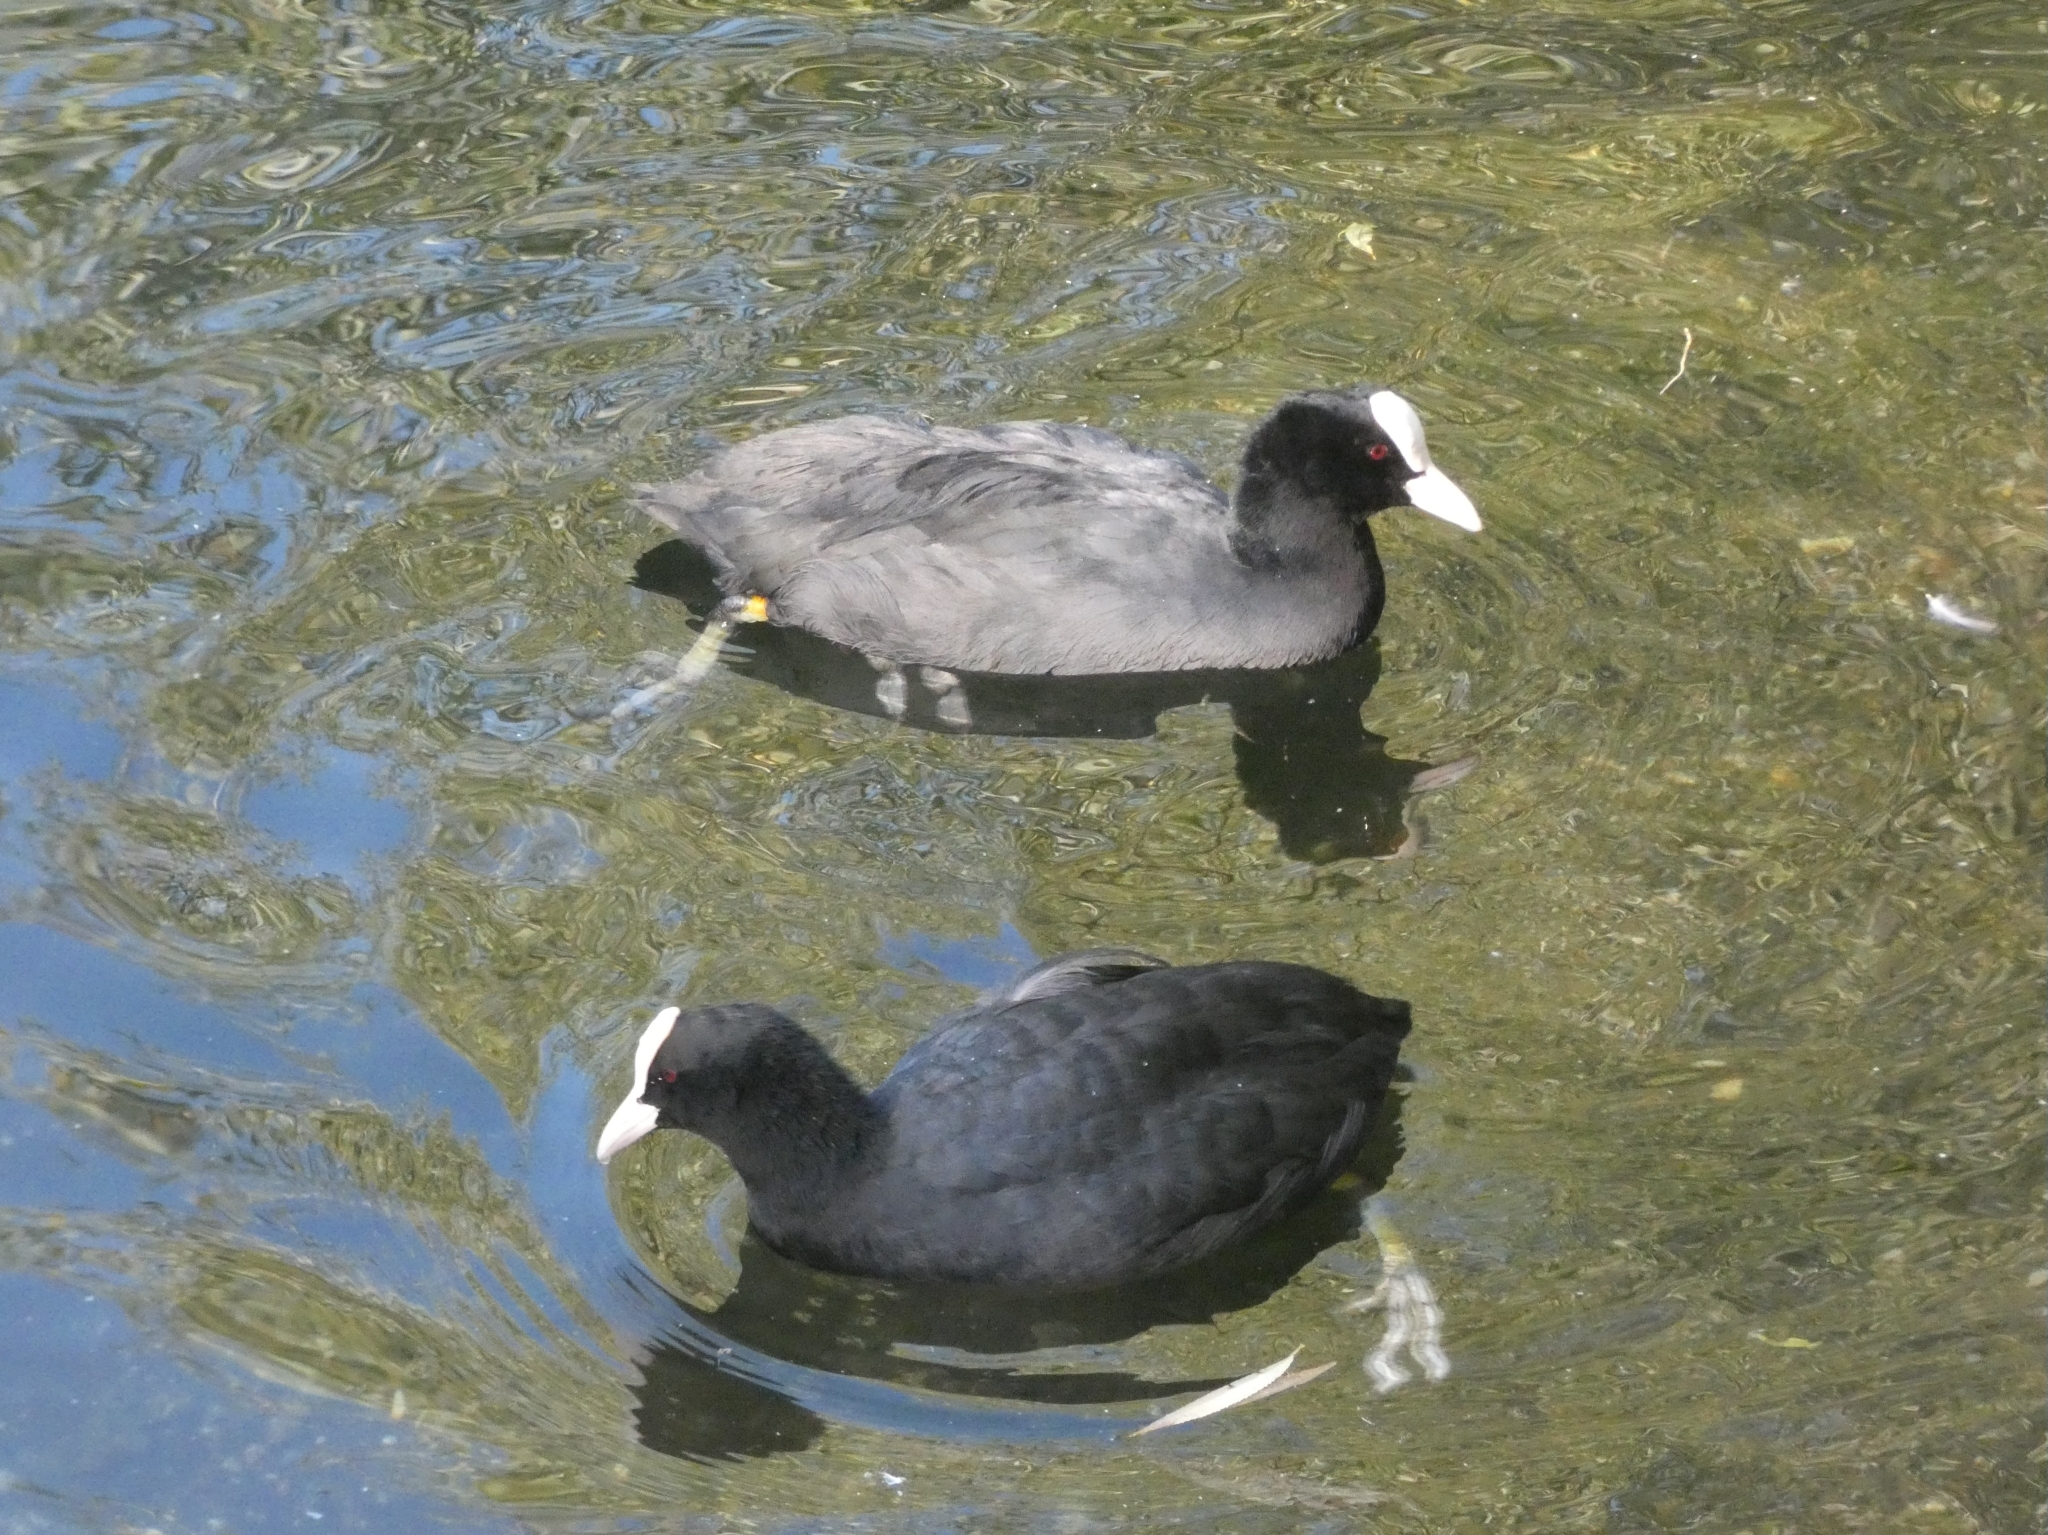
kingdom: Animalia
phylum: Chordata
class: Aves
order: Gruiformes
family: Rallidae
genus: Fulica
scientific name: Fulica atra
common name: Eurasian coot
